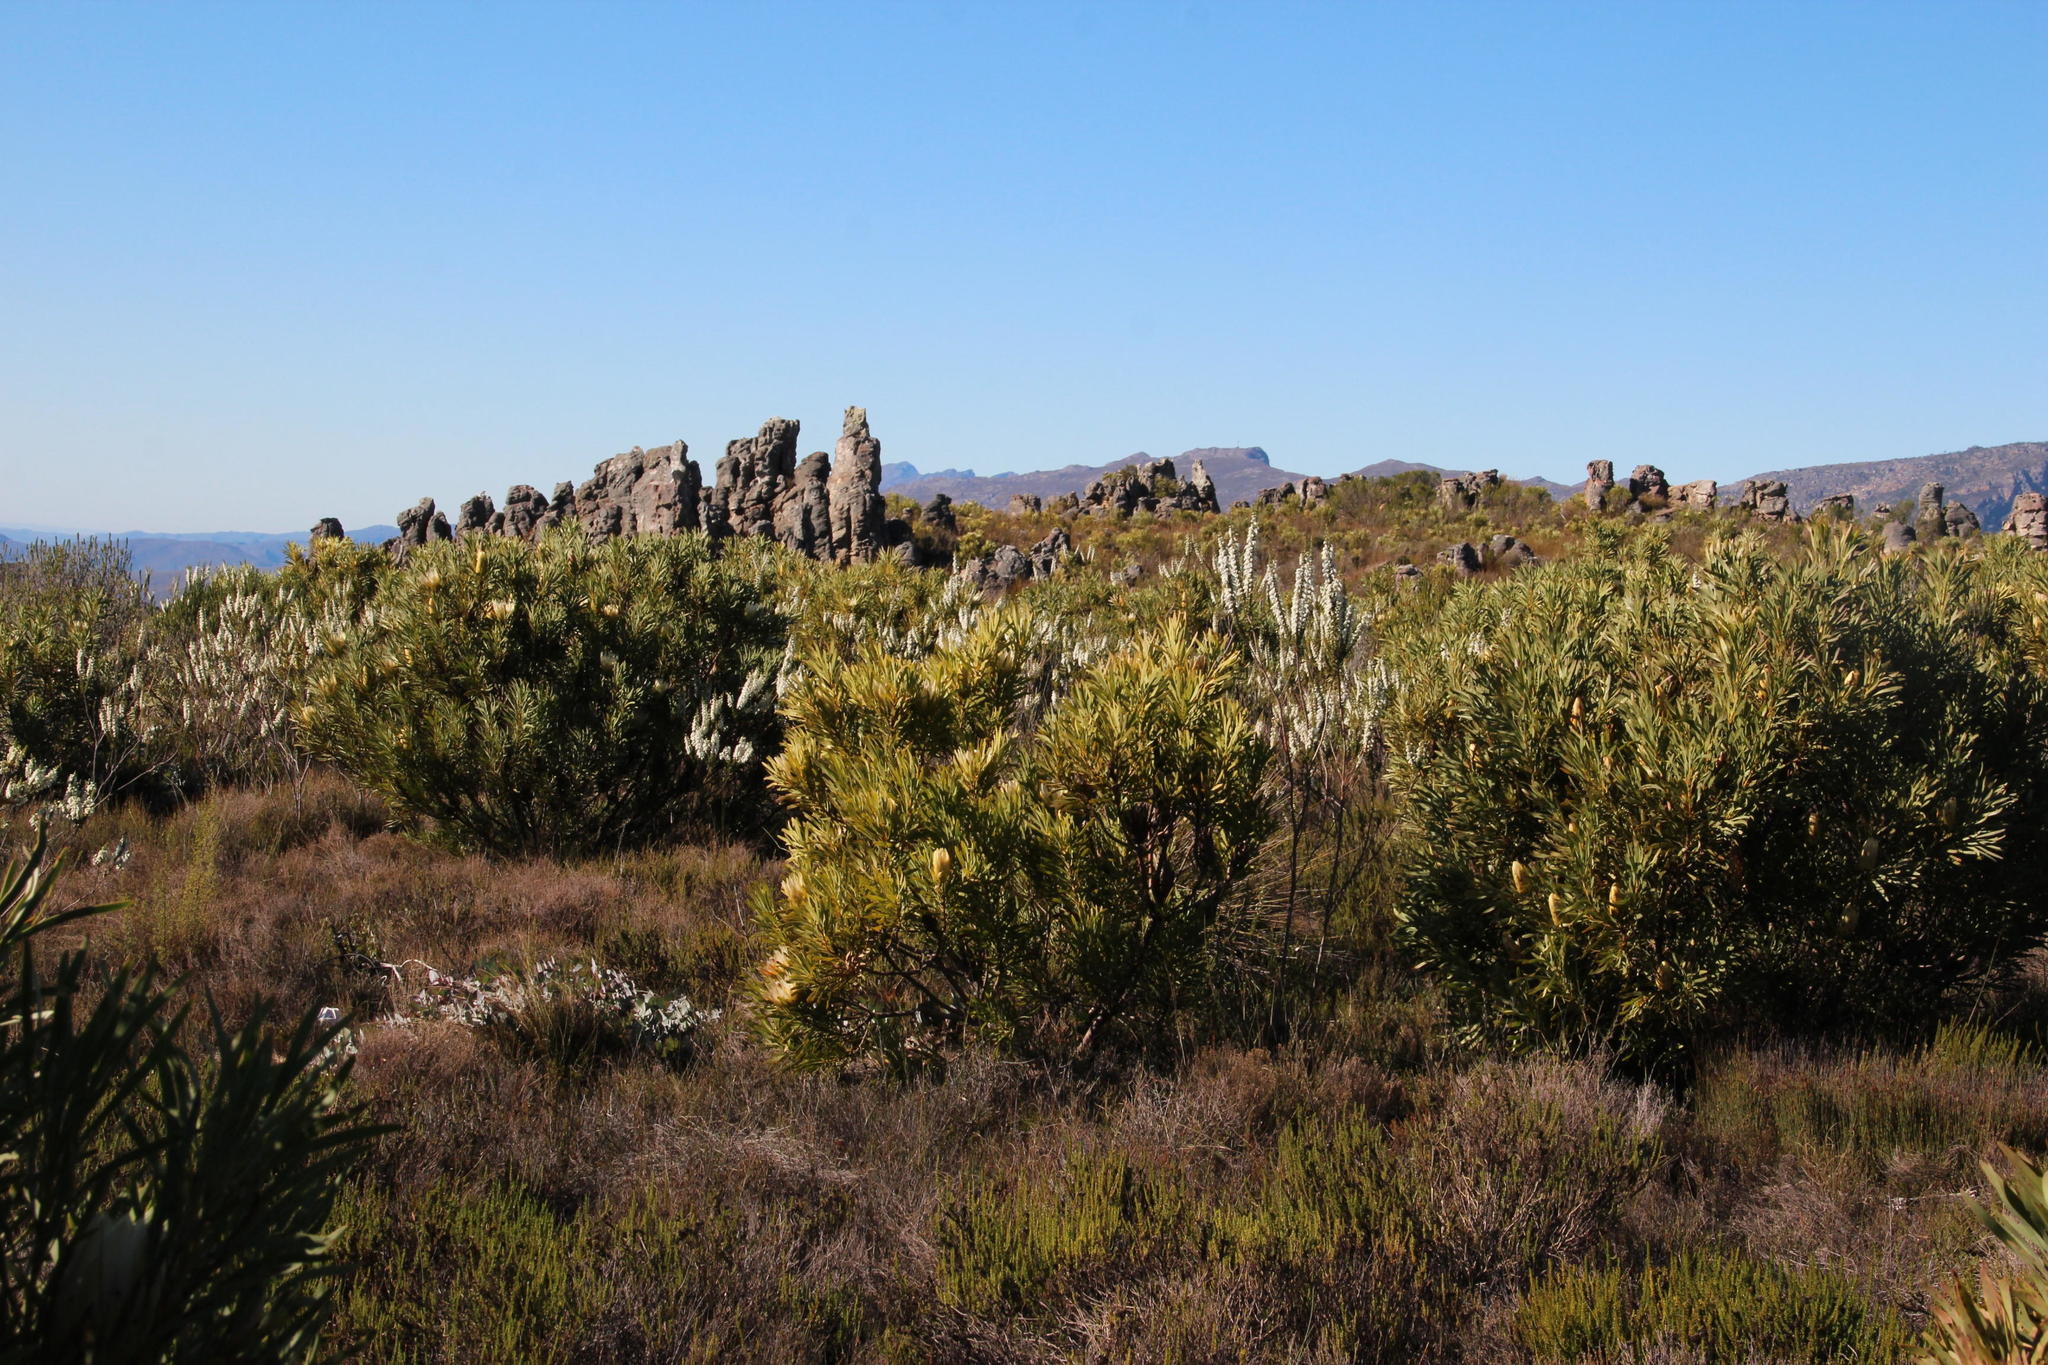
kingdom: Plantae
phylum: Tracheophyta
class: Magnoliopsida
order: Ericales
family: Ericaceae
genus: Erica
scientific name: Erica monsoniana
